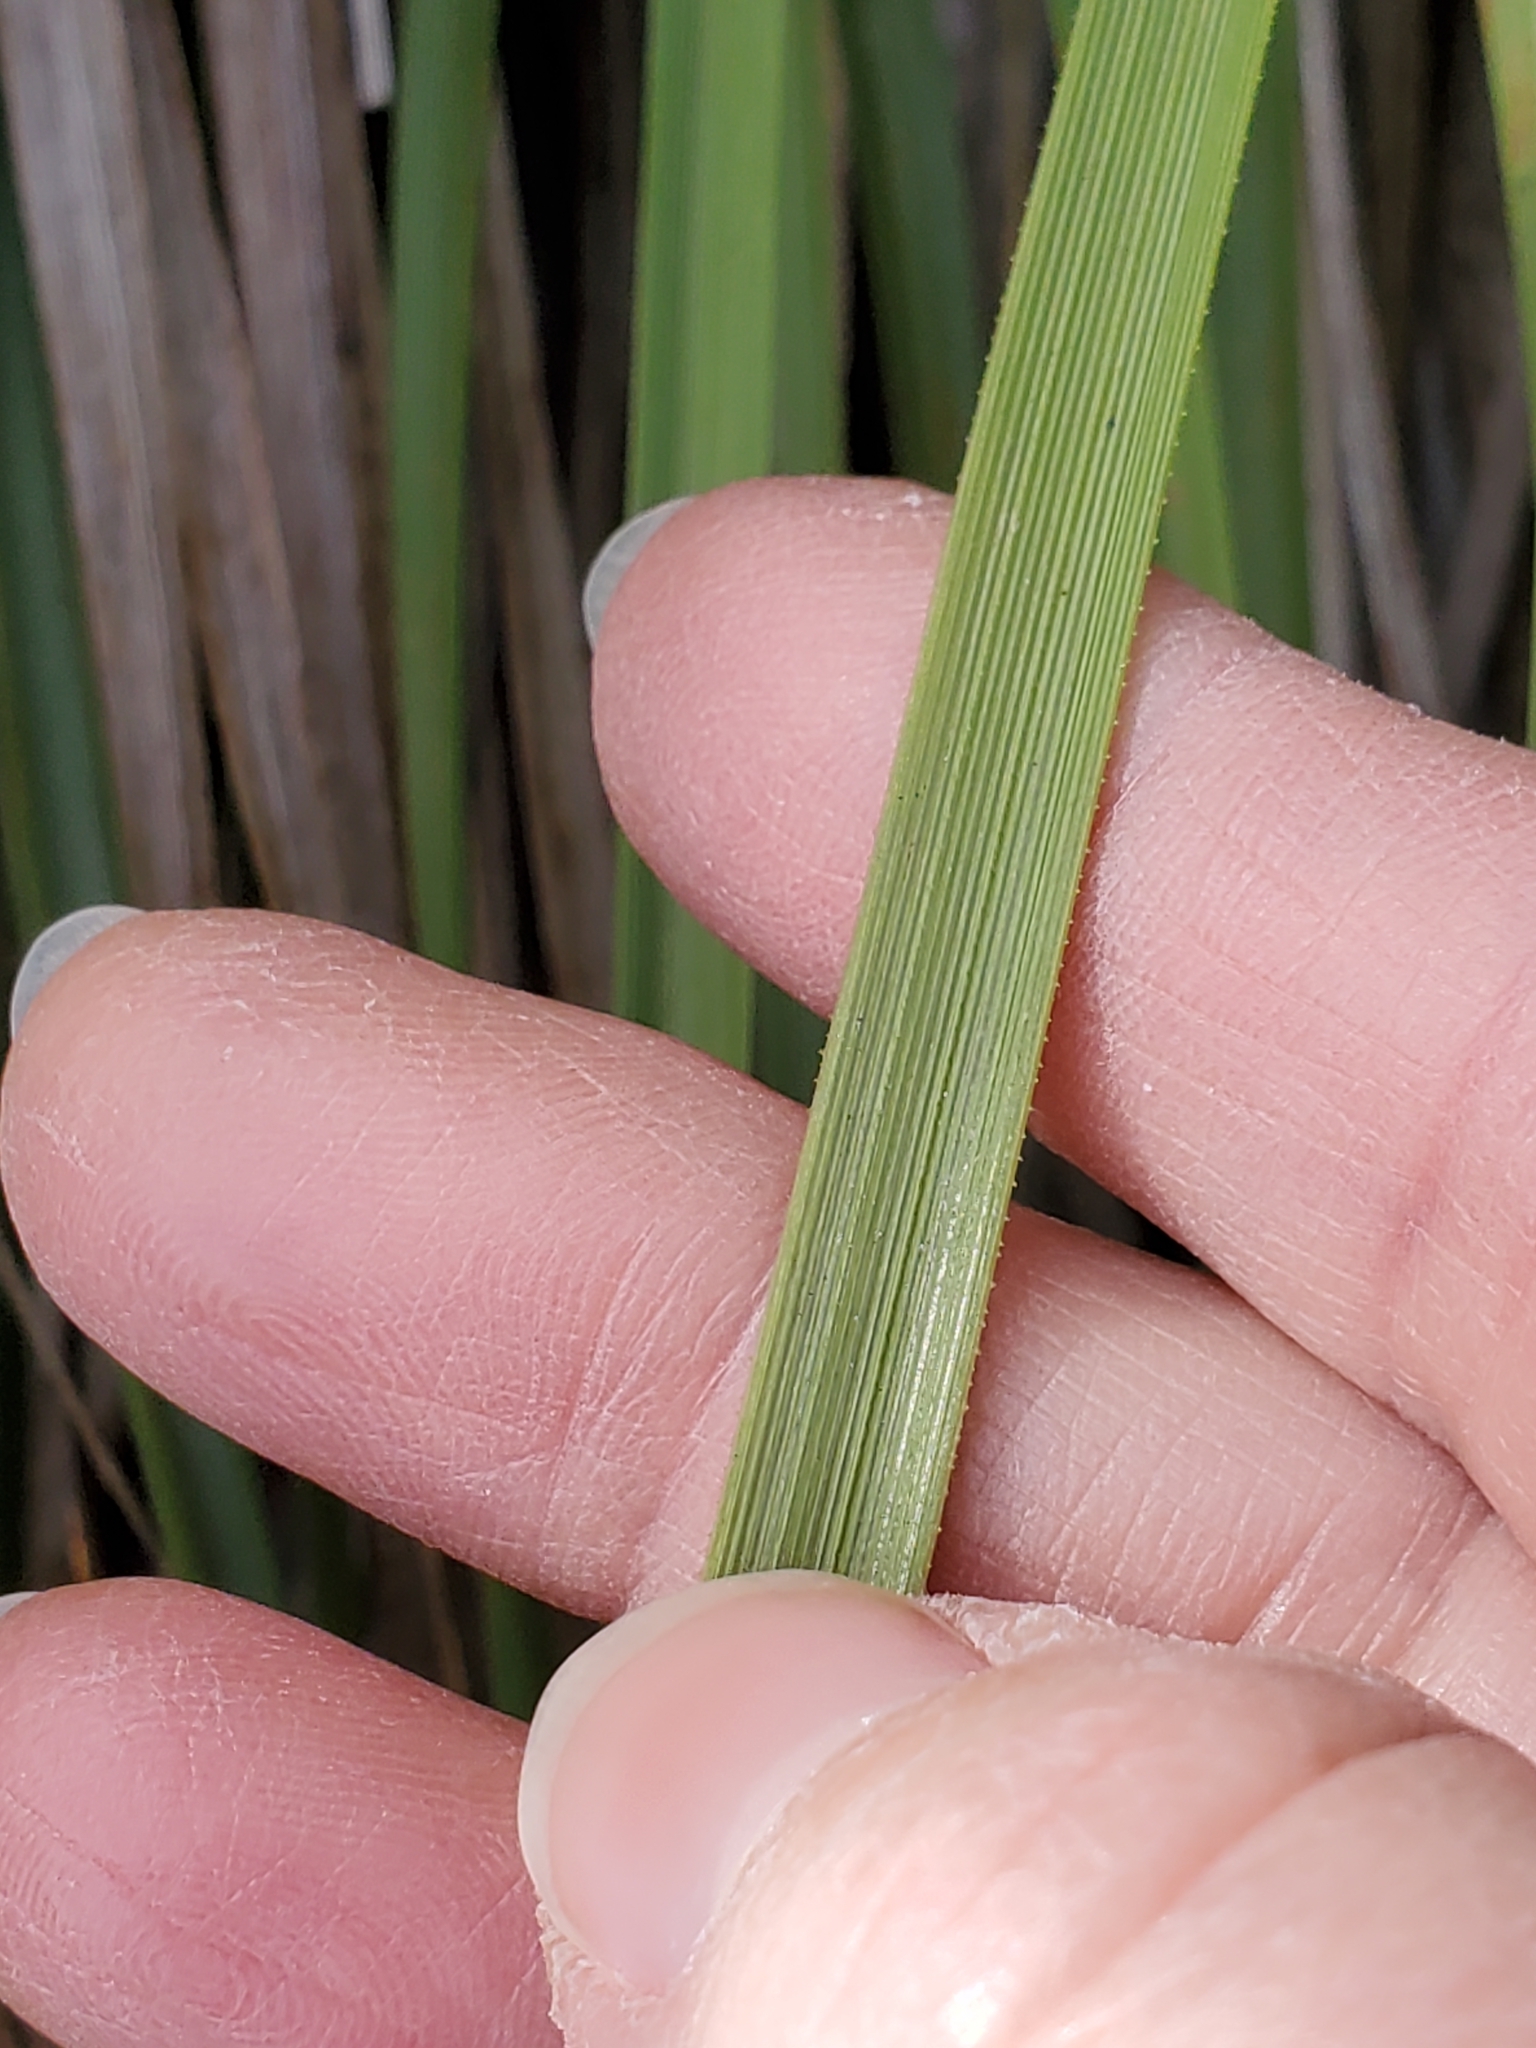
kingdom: Plantae
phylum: Tracheophyta
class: Liliopsida
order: Asparagales
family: Asparagaceae
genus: Nolina
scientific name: Nolina lindheimeriana
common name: Lindheimer's bear-grass
